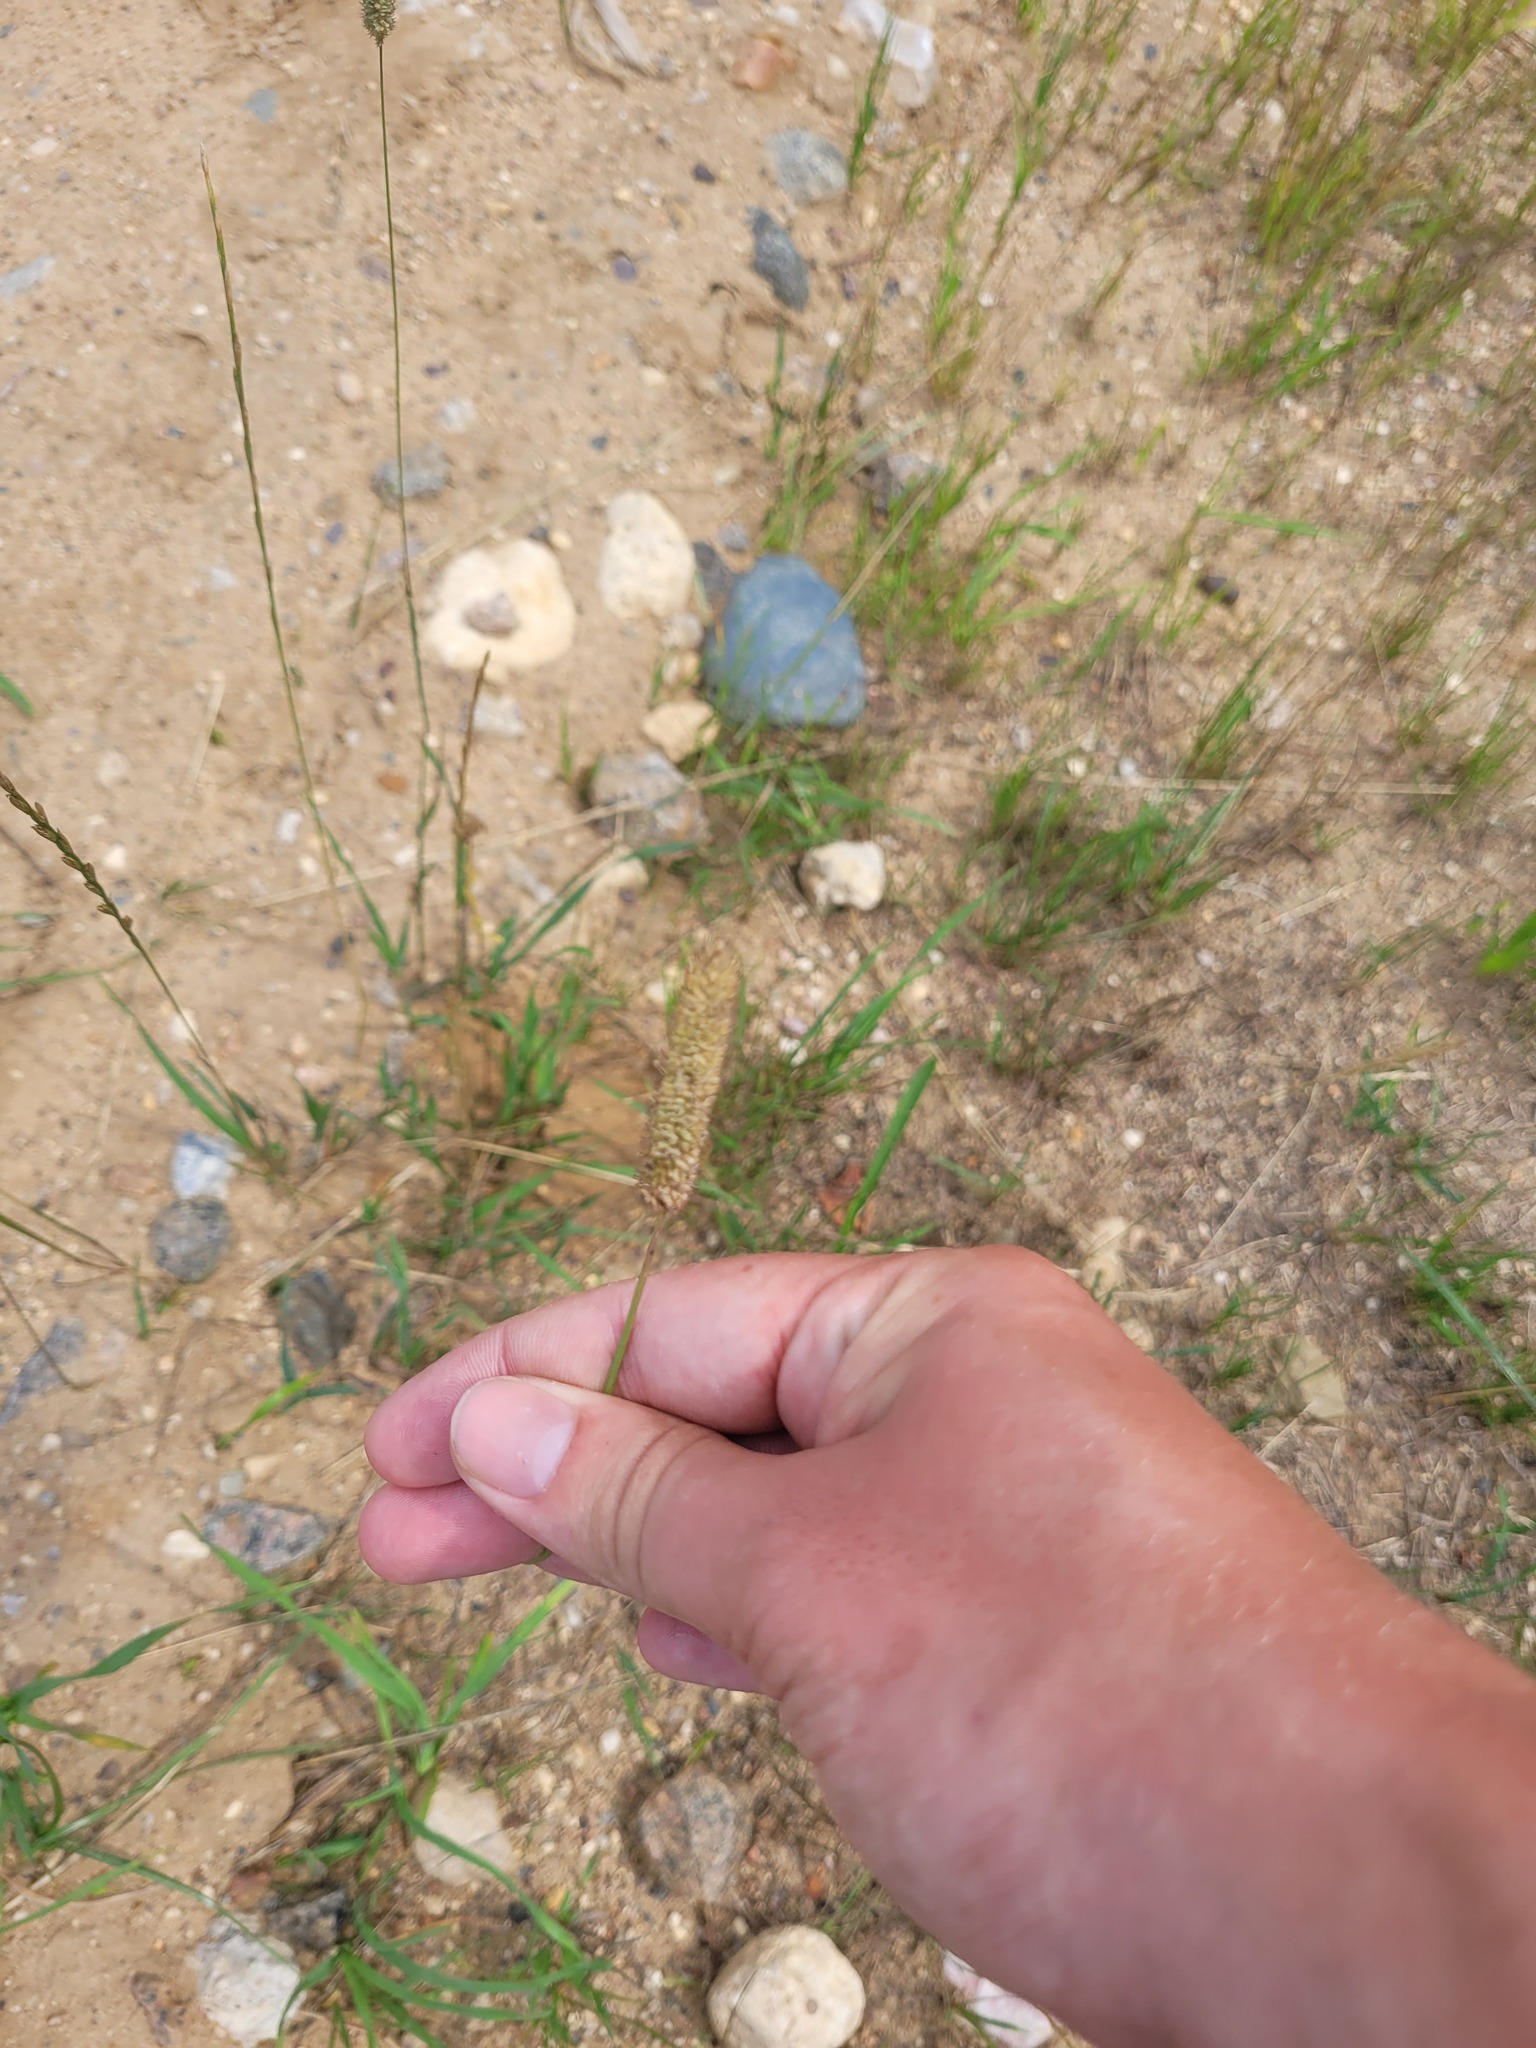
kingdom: Plantae
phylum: Tracheophyta
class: Liliopsida
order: Poales
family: Poaceae
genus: Phleum
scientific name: Phleum pratense
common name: Timothy grass
